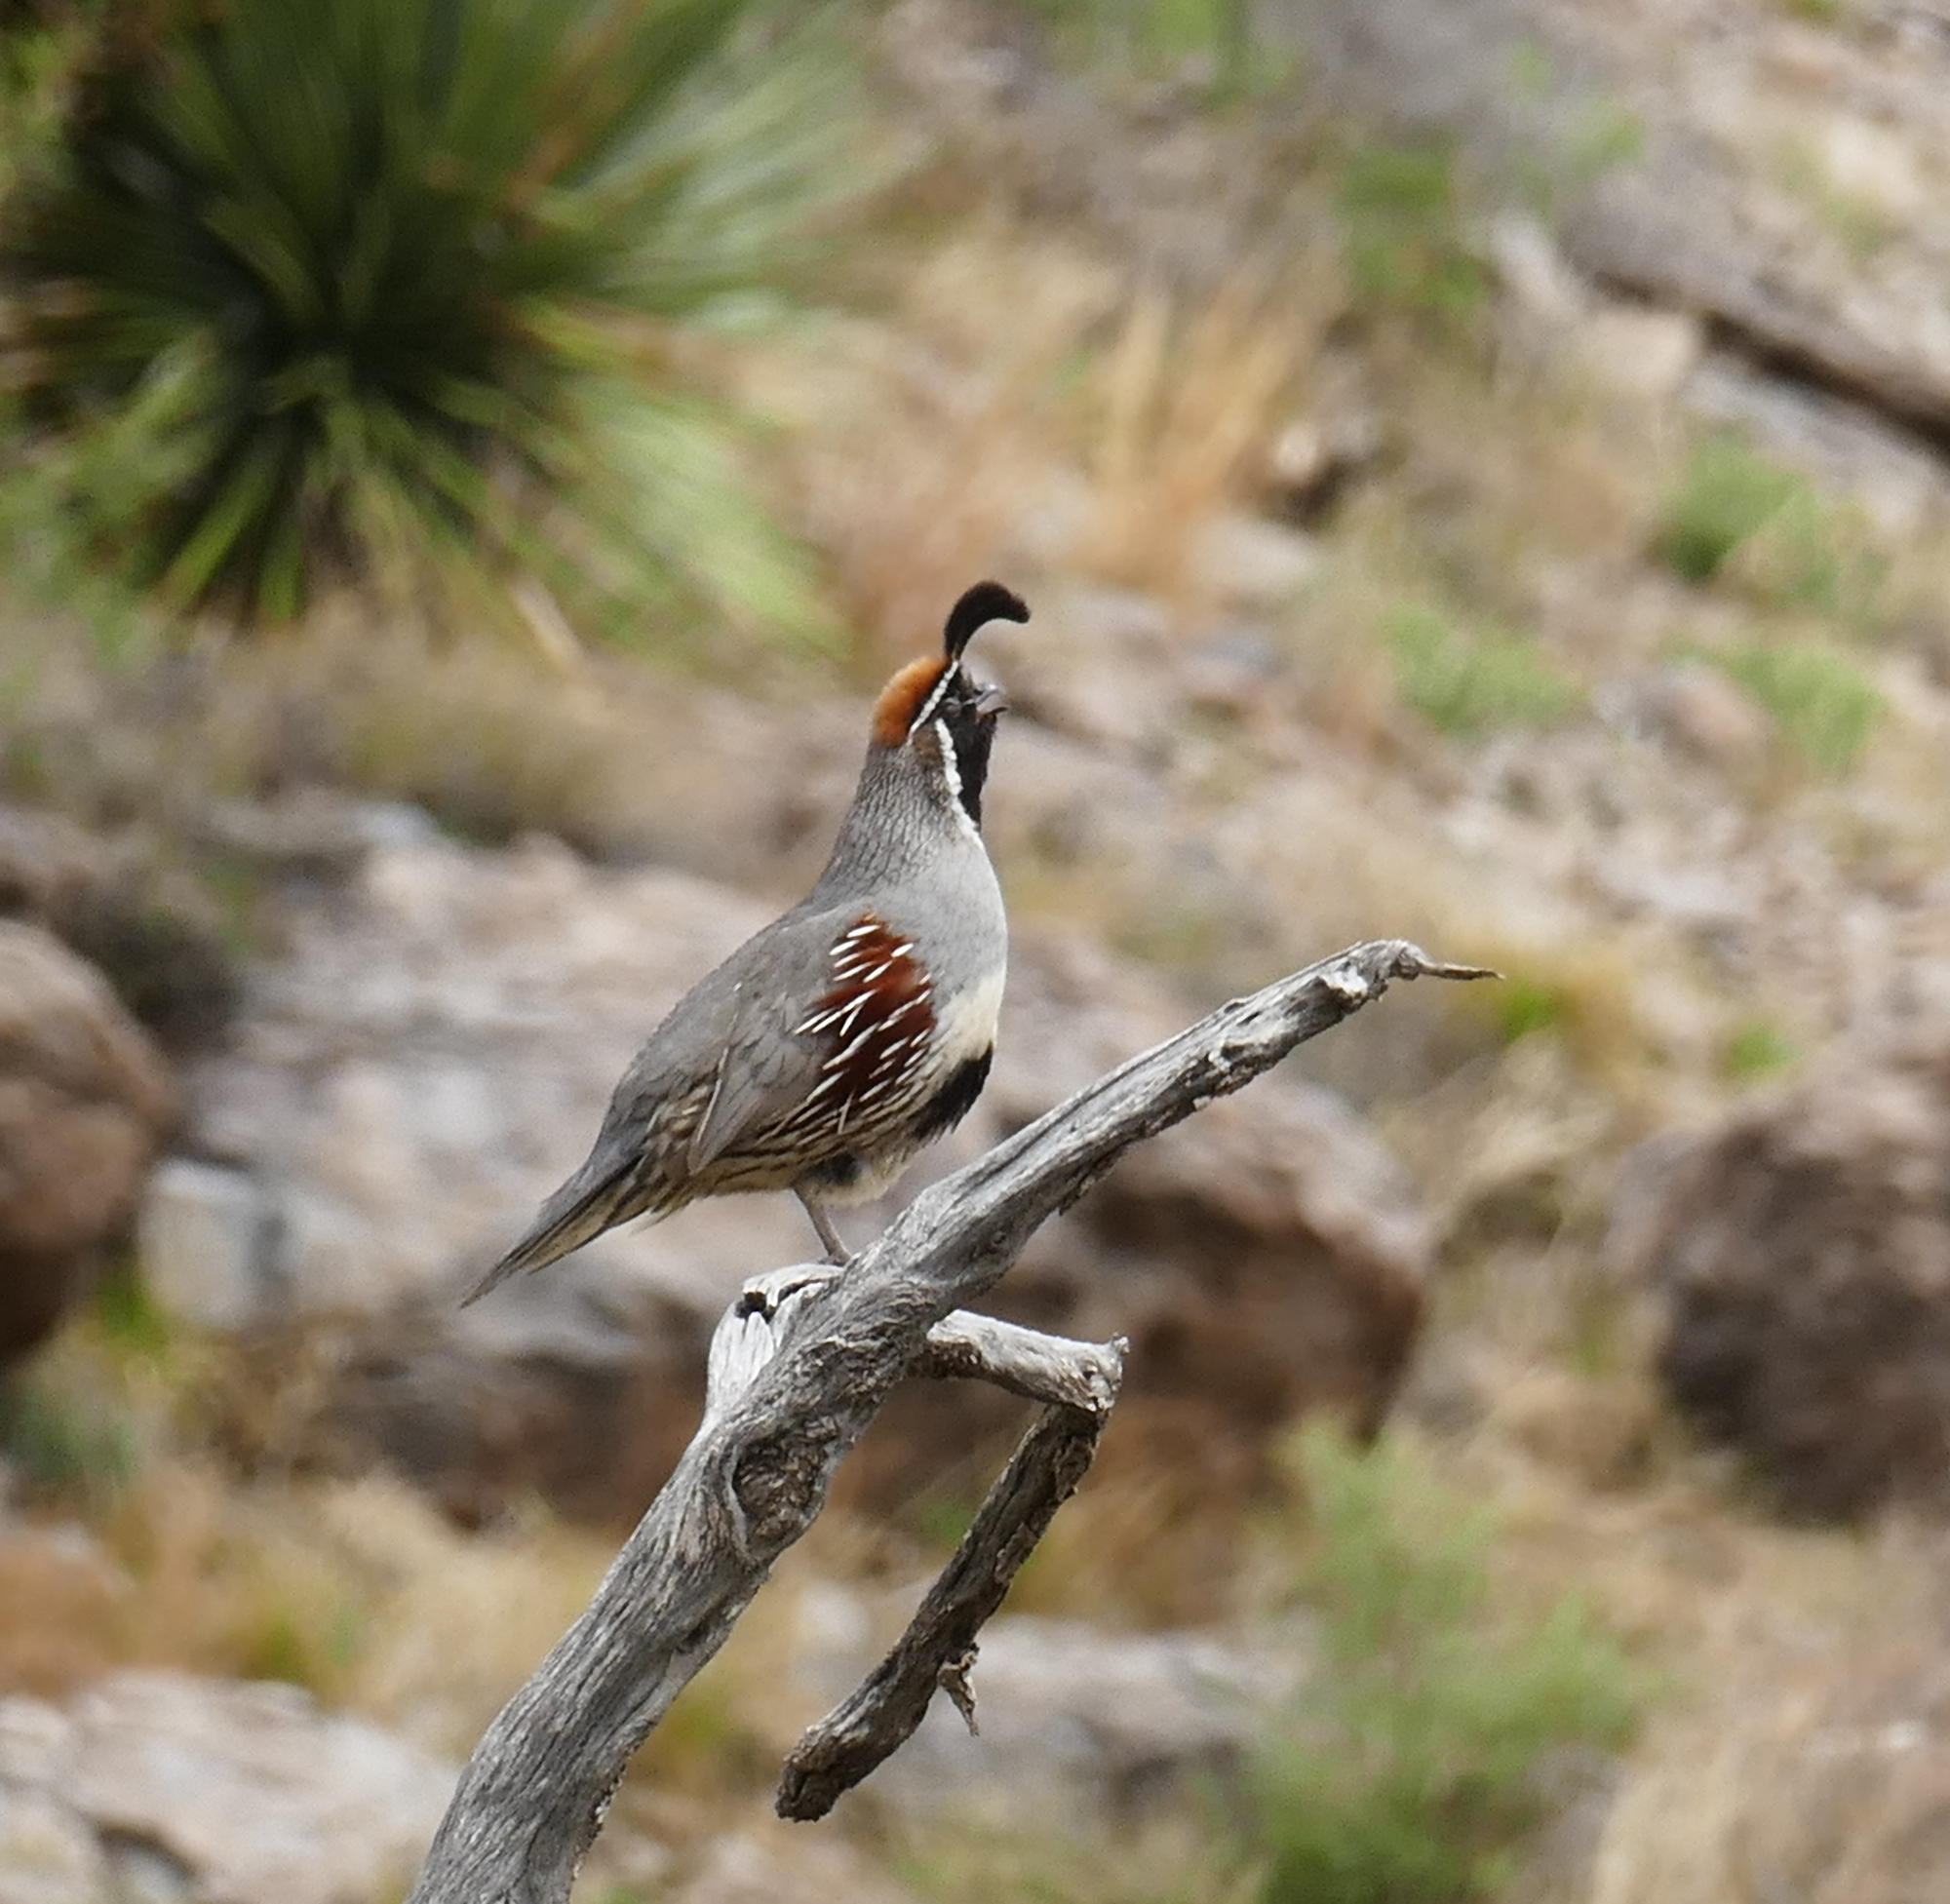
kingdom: Animalia
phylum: Chordata
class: Aves
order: Galliformes
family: Odontophoridae
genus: Callipepla
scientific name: Callipepla gambelii
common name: Gambel's quail
